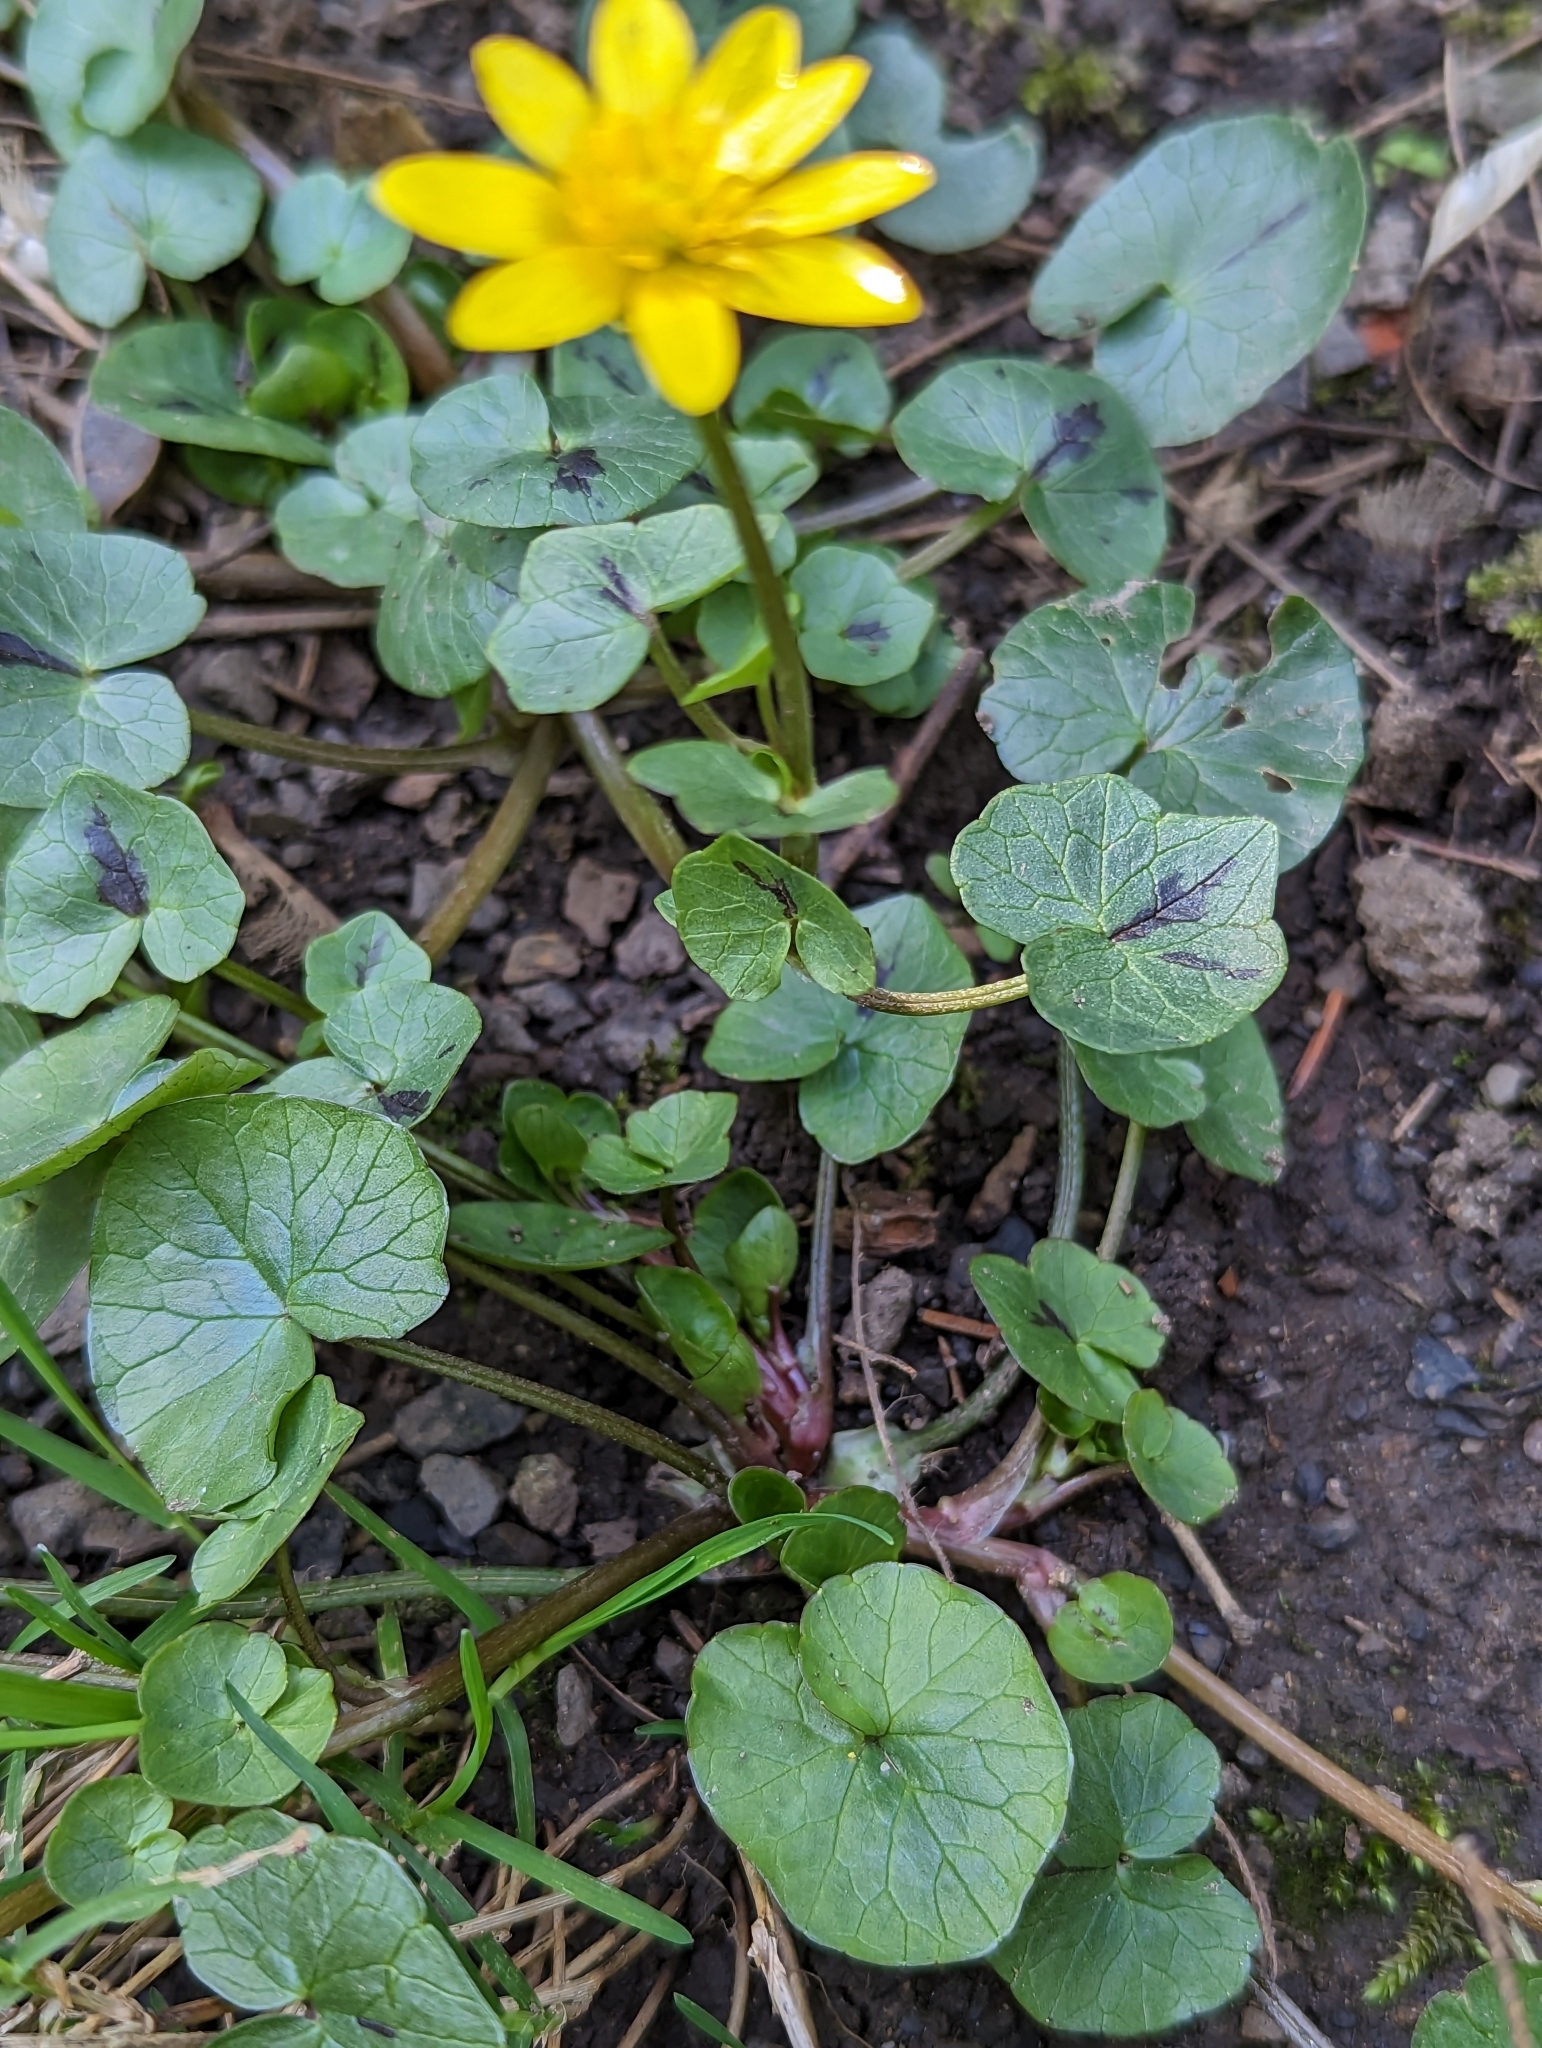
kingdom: Plantae
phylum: Tracheophyta
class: Magnoliopsida
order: Ranunculales
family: Ranunculaceae
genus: Ficaria
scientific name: Ficaria verna
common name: Lesser celandine
